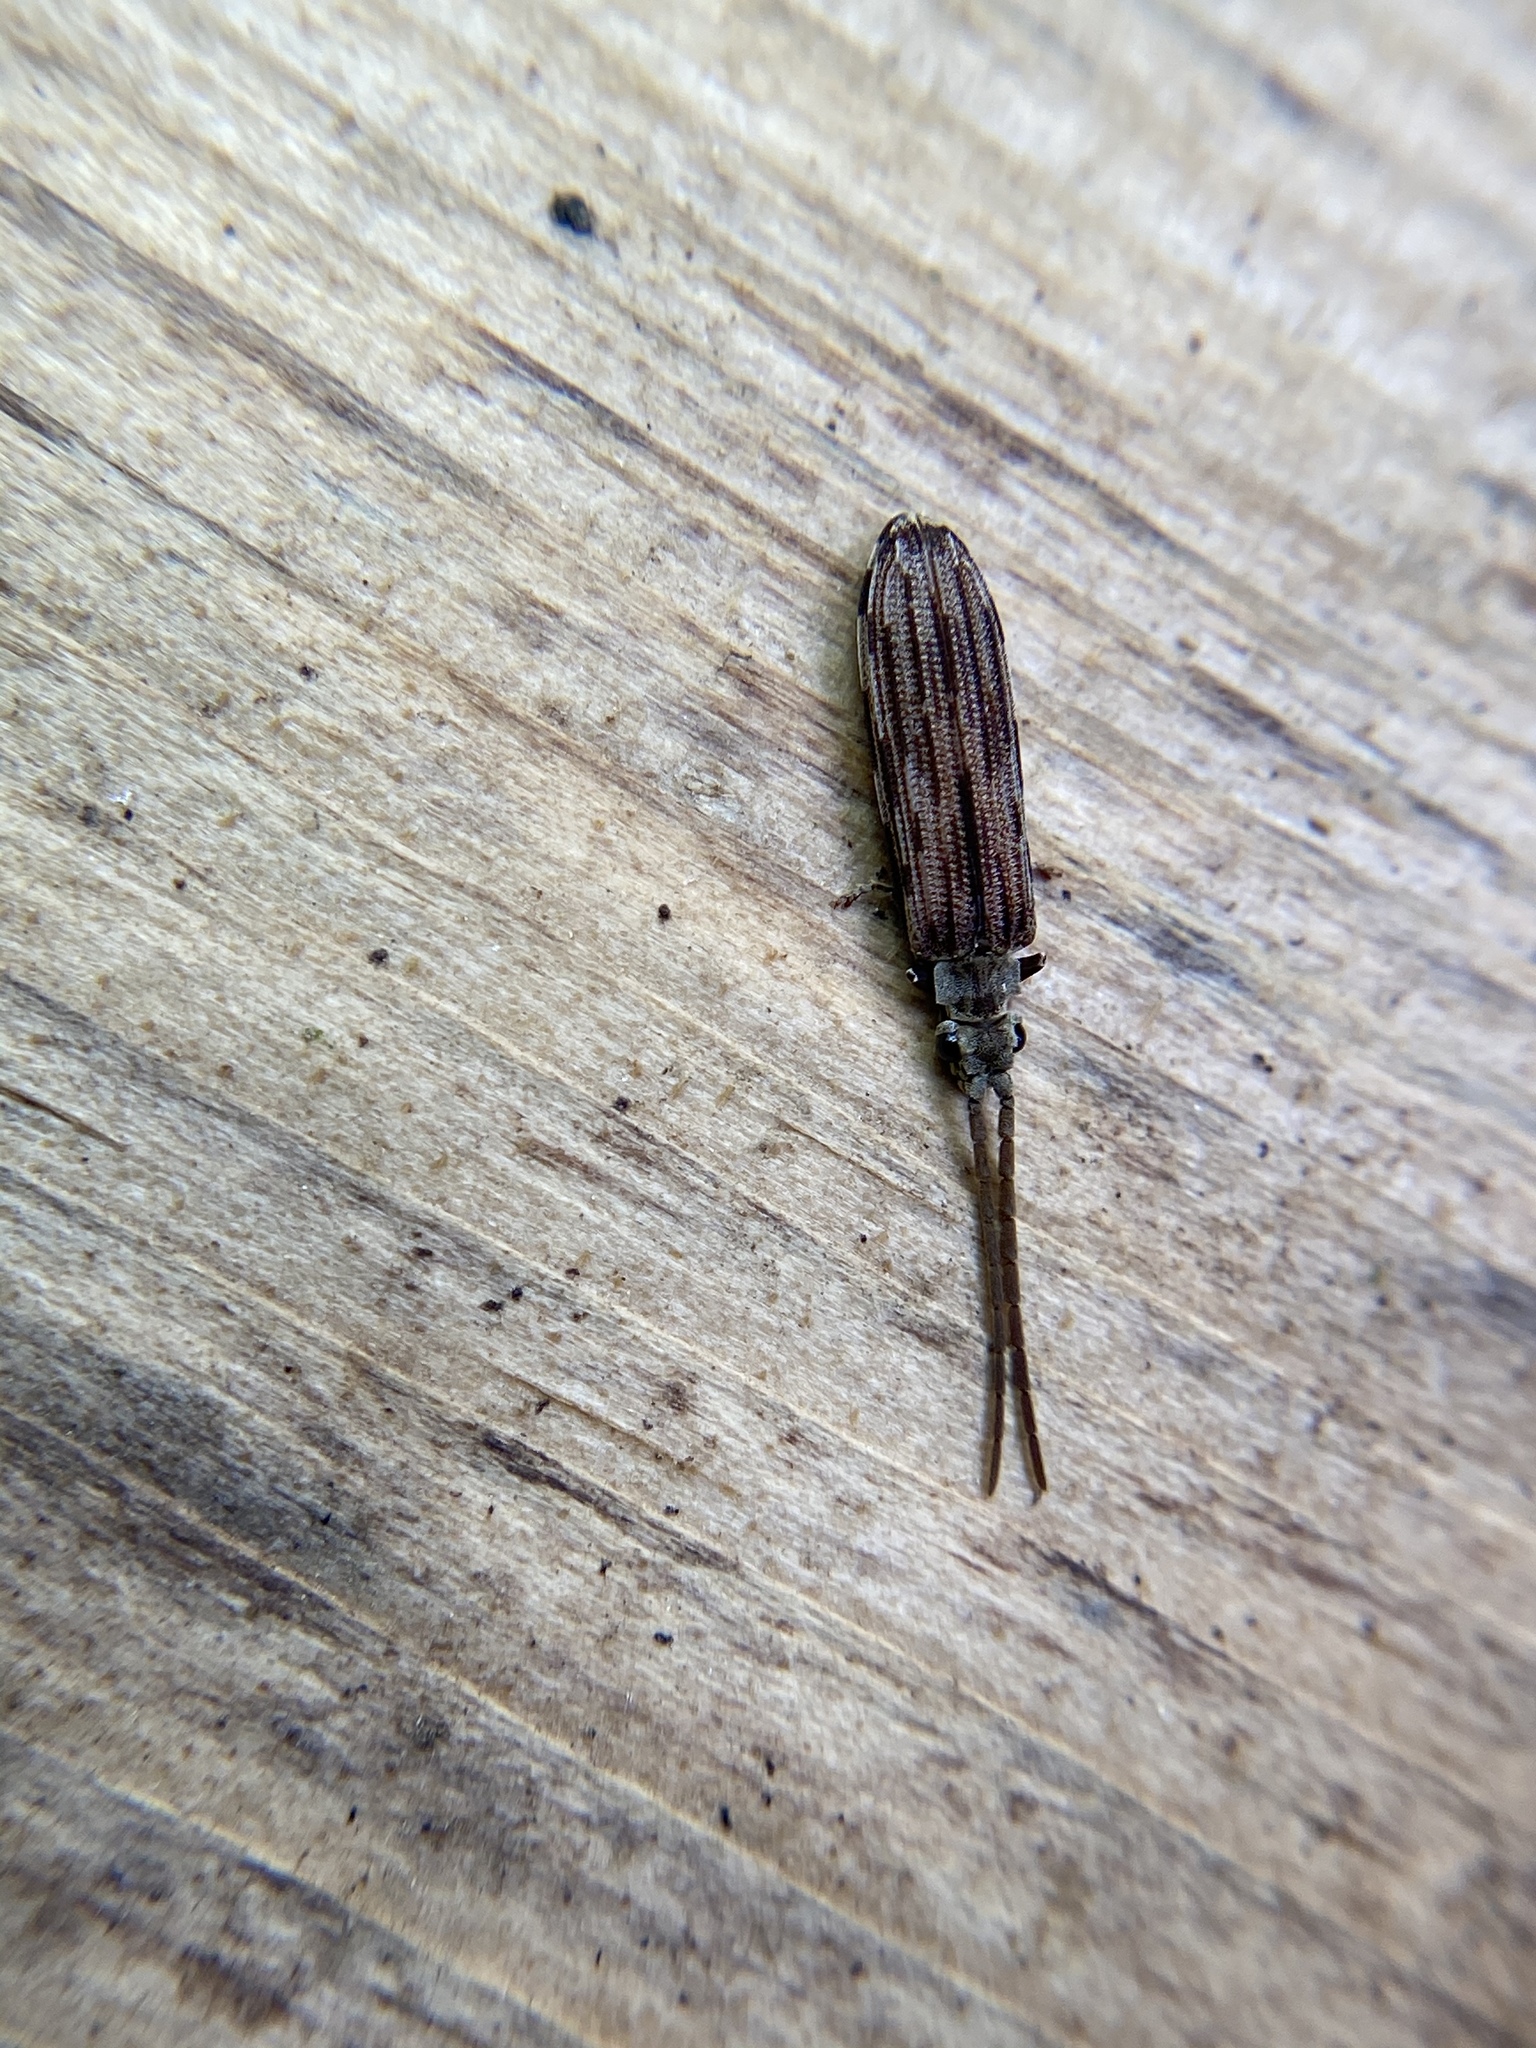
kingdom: Animalia
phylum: Arthropoda
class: Insecta
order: Coleoptera
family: Cupedidae
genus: Tenomerga
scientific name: Tenomerga cinerea
